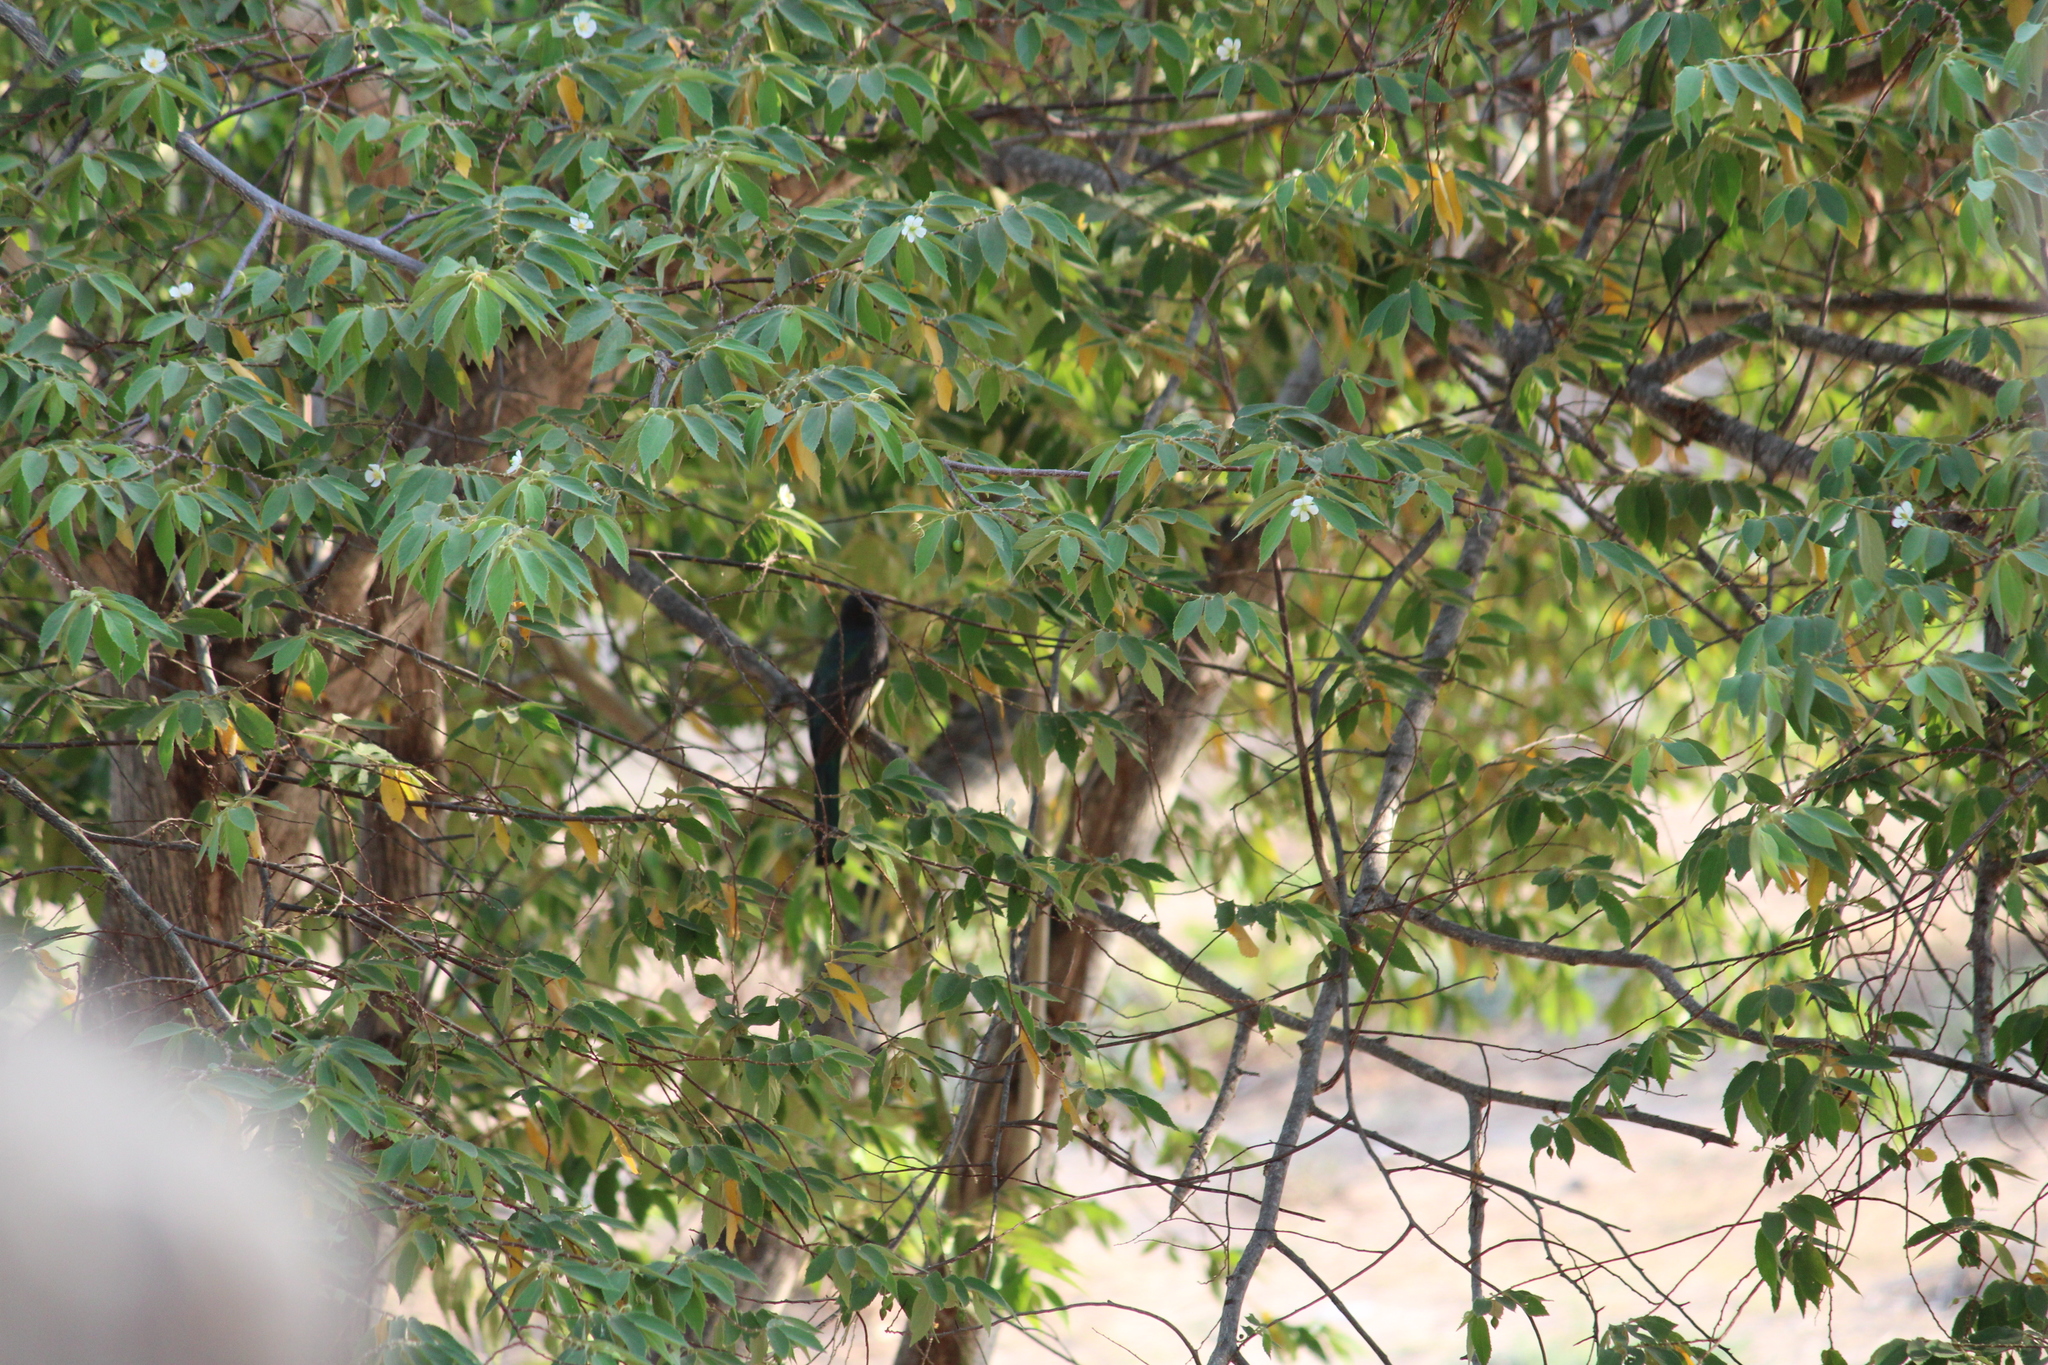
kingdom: Animalia
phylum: Chordata
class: Aves
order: Trogoniformes
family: Trogonidae
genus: Trogon
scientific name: Trogon citreolus
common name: Citreoline trogon
